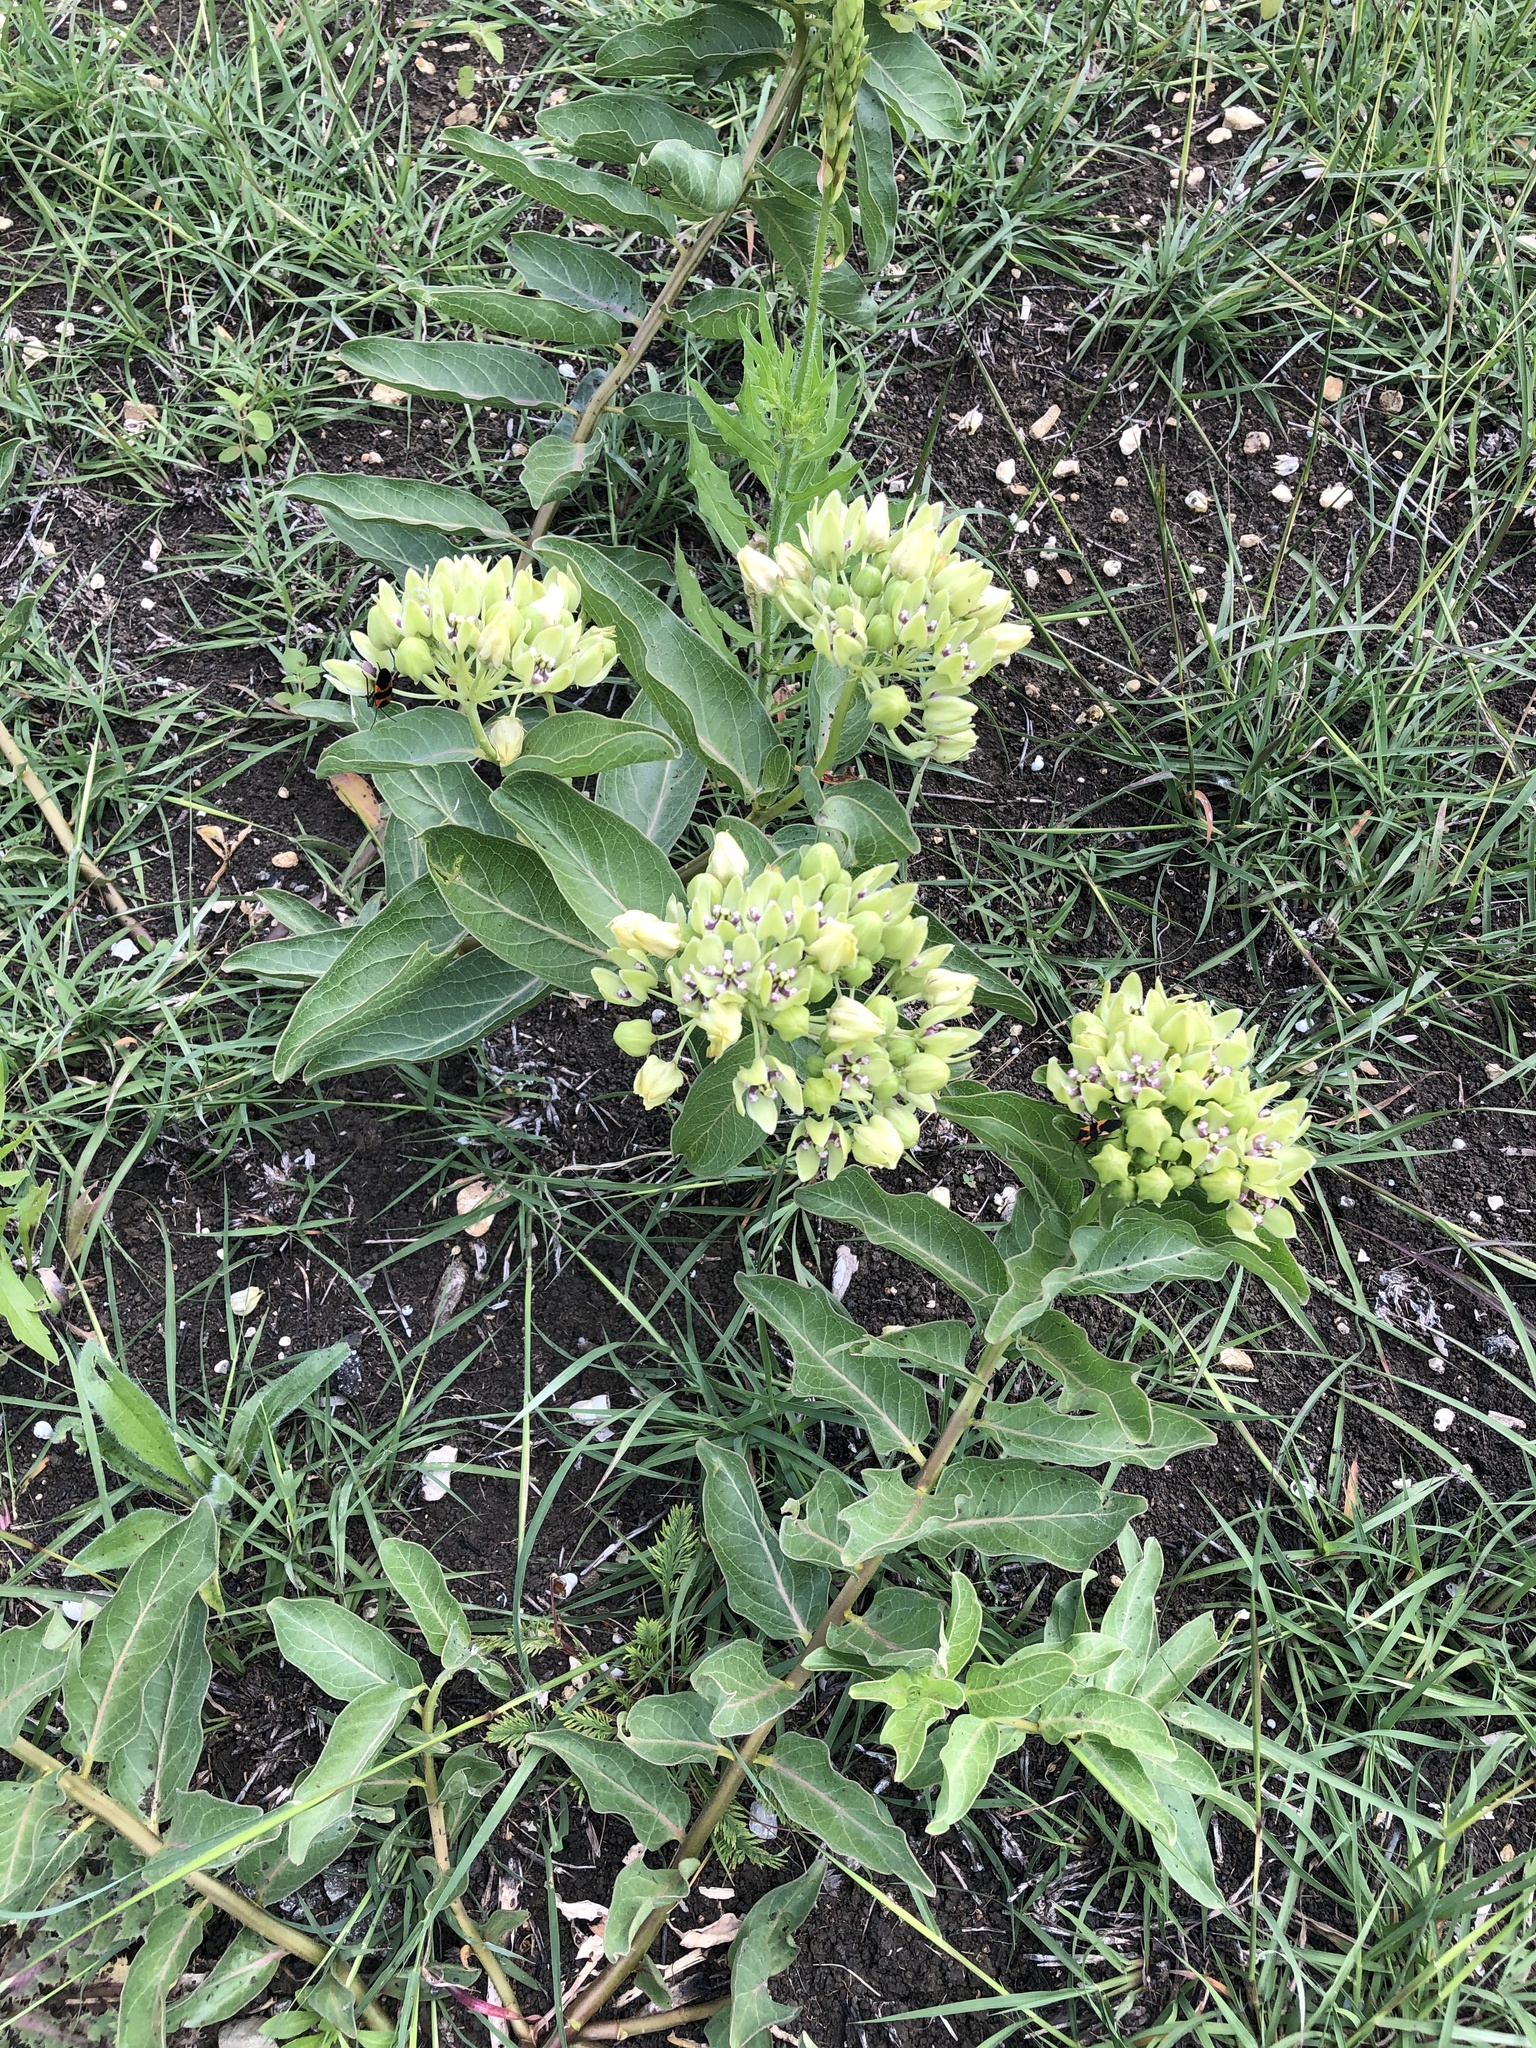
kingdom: Plantae
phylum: Tracheophyta
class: Magnoliopsida
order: Gentianales
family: Apocynaceae
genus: Asclepias
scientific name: Asclepias viridis
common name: Antelope-horns
